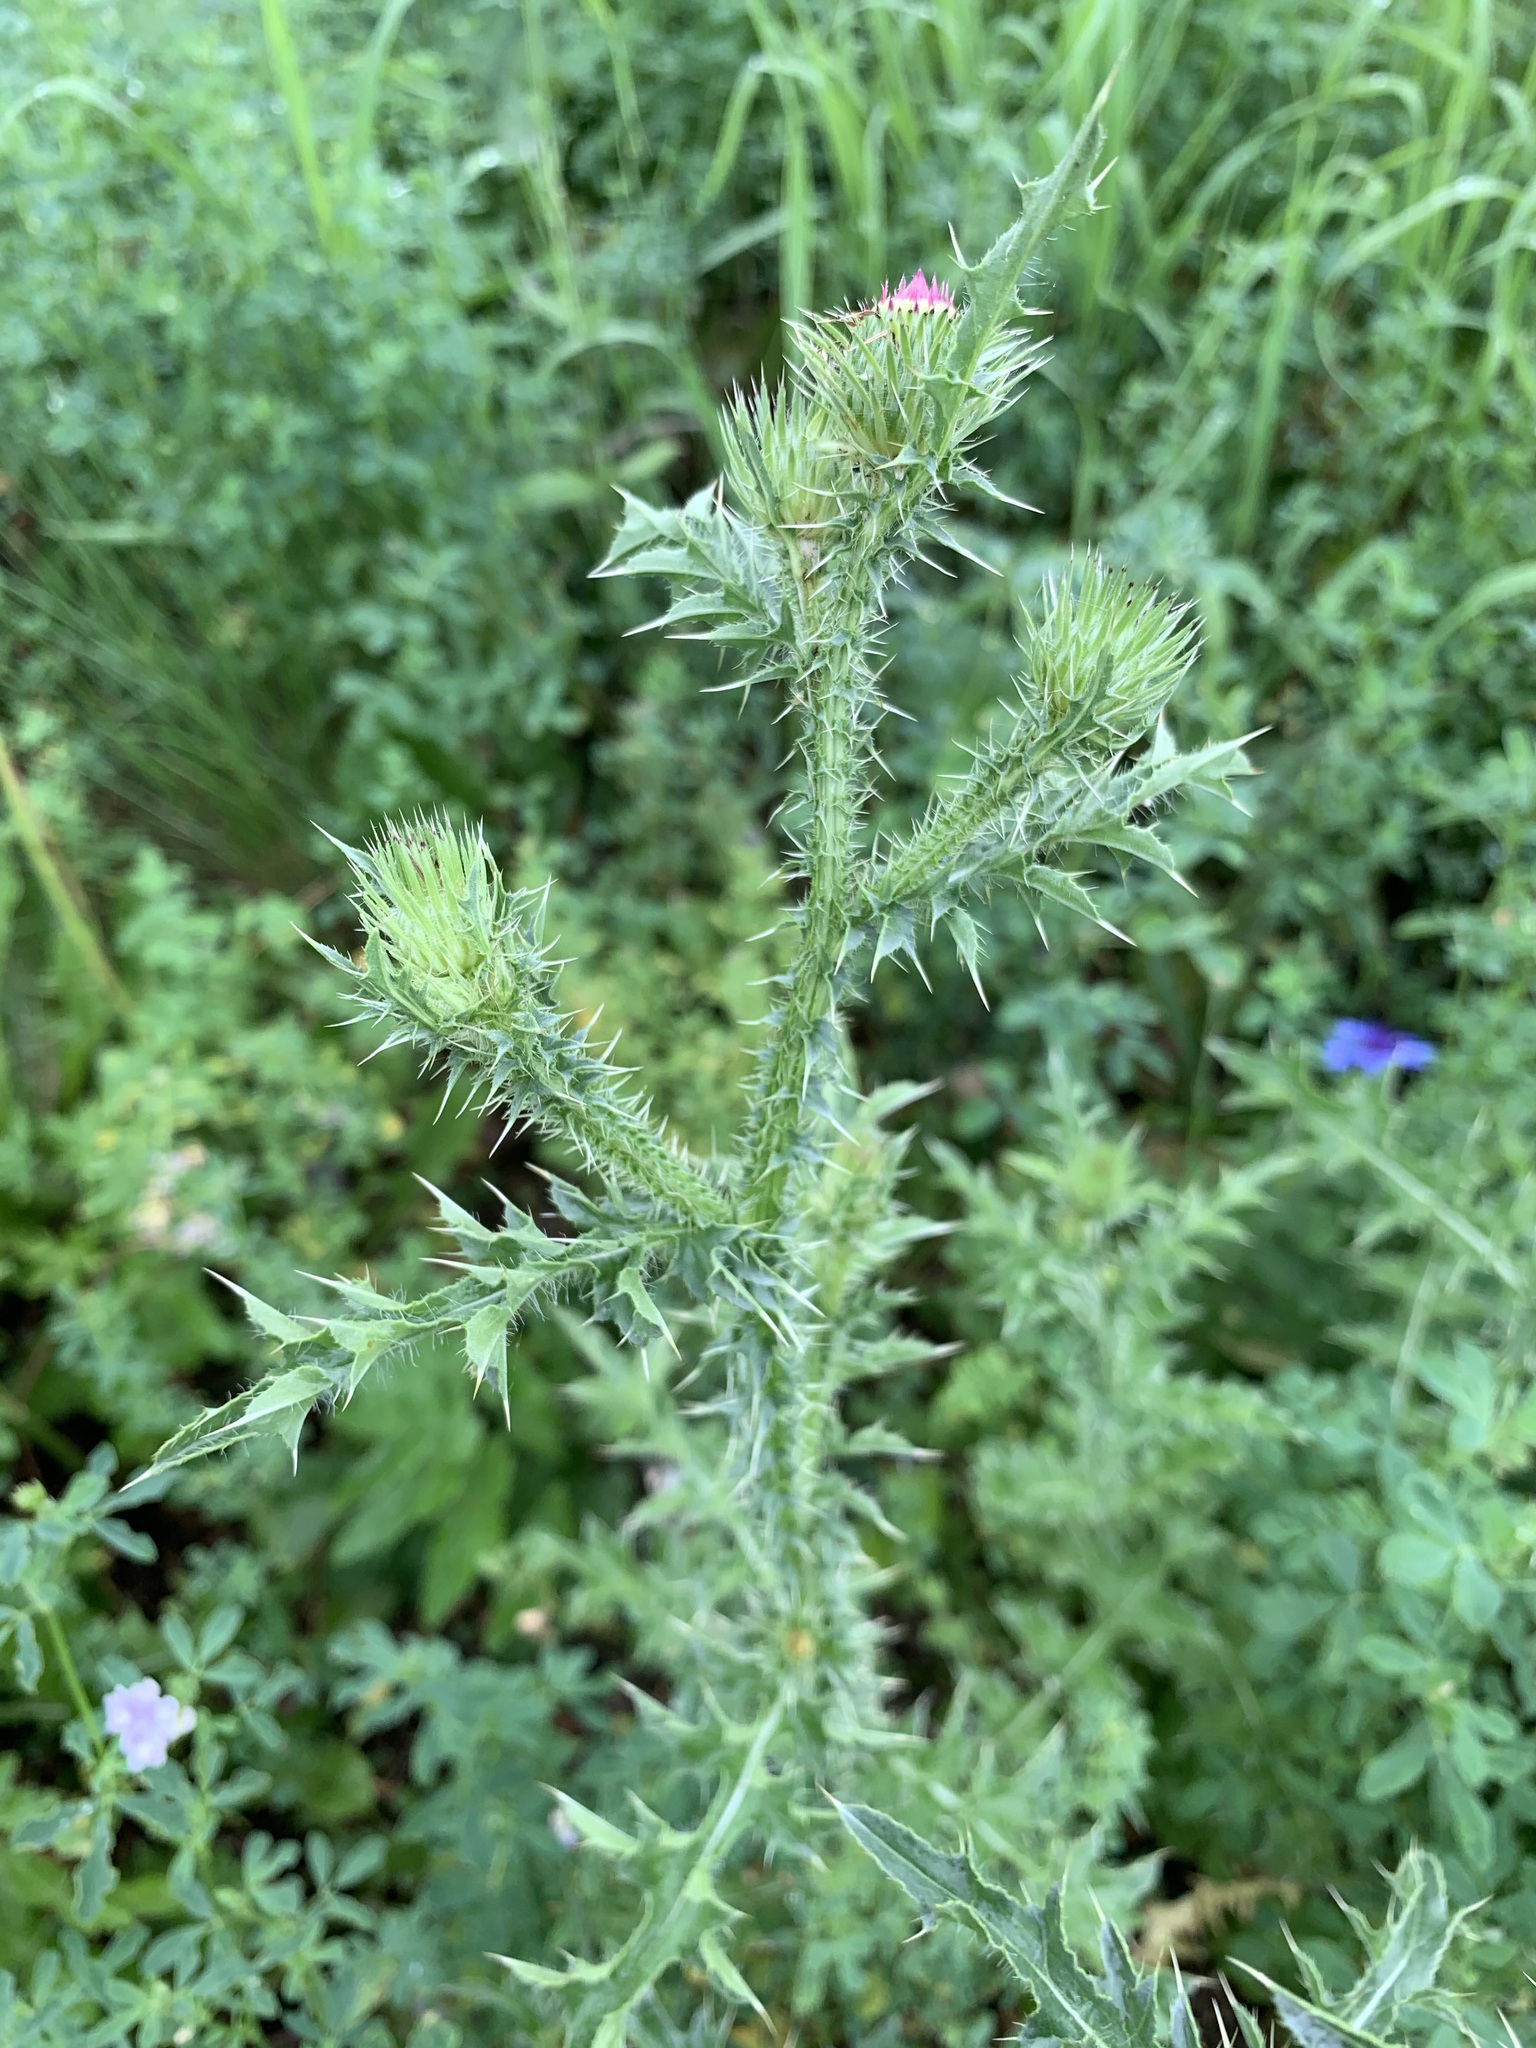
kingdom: Plantae
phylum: Tracheophyta
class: Magnoliopsida
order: Asterales
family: Asteraceae
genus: Carduus
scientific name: Carduus acanthoides
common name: Plumeless thistle
